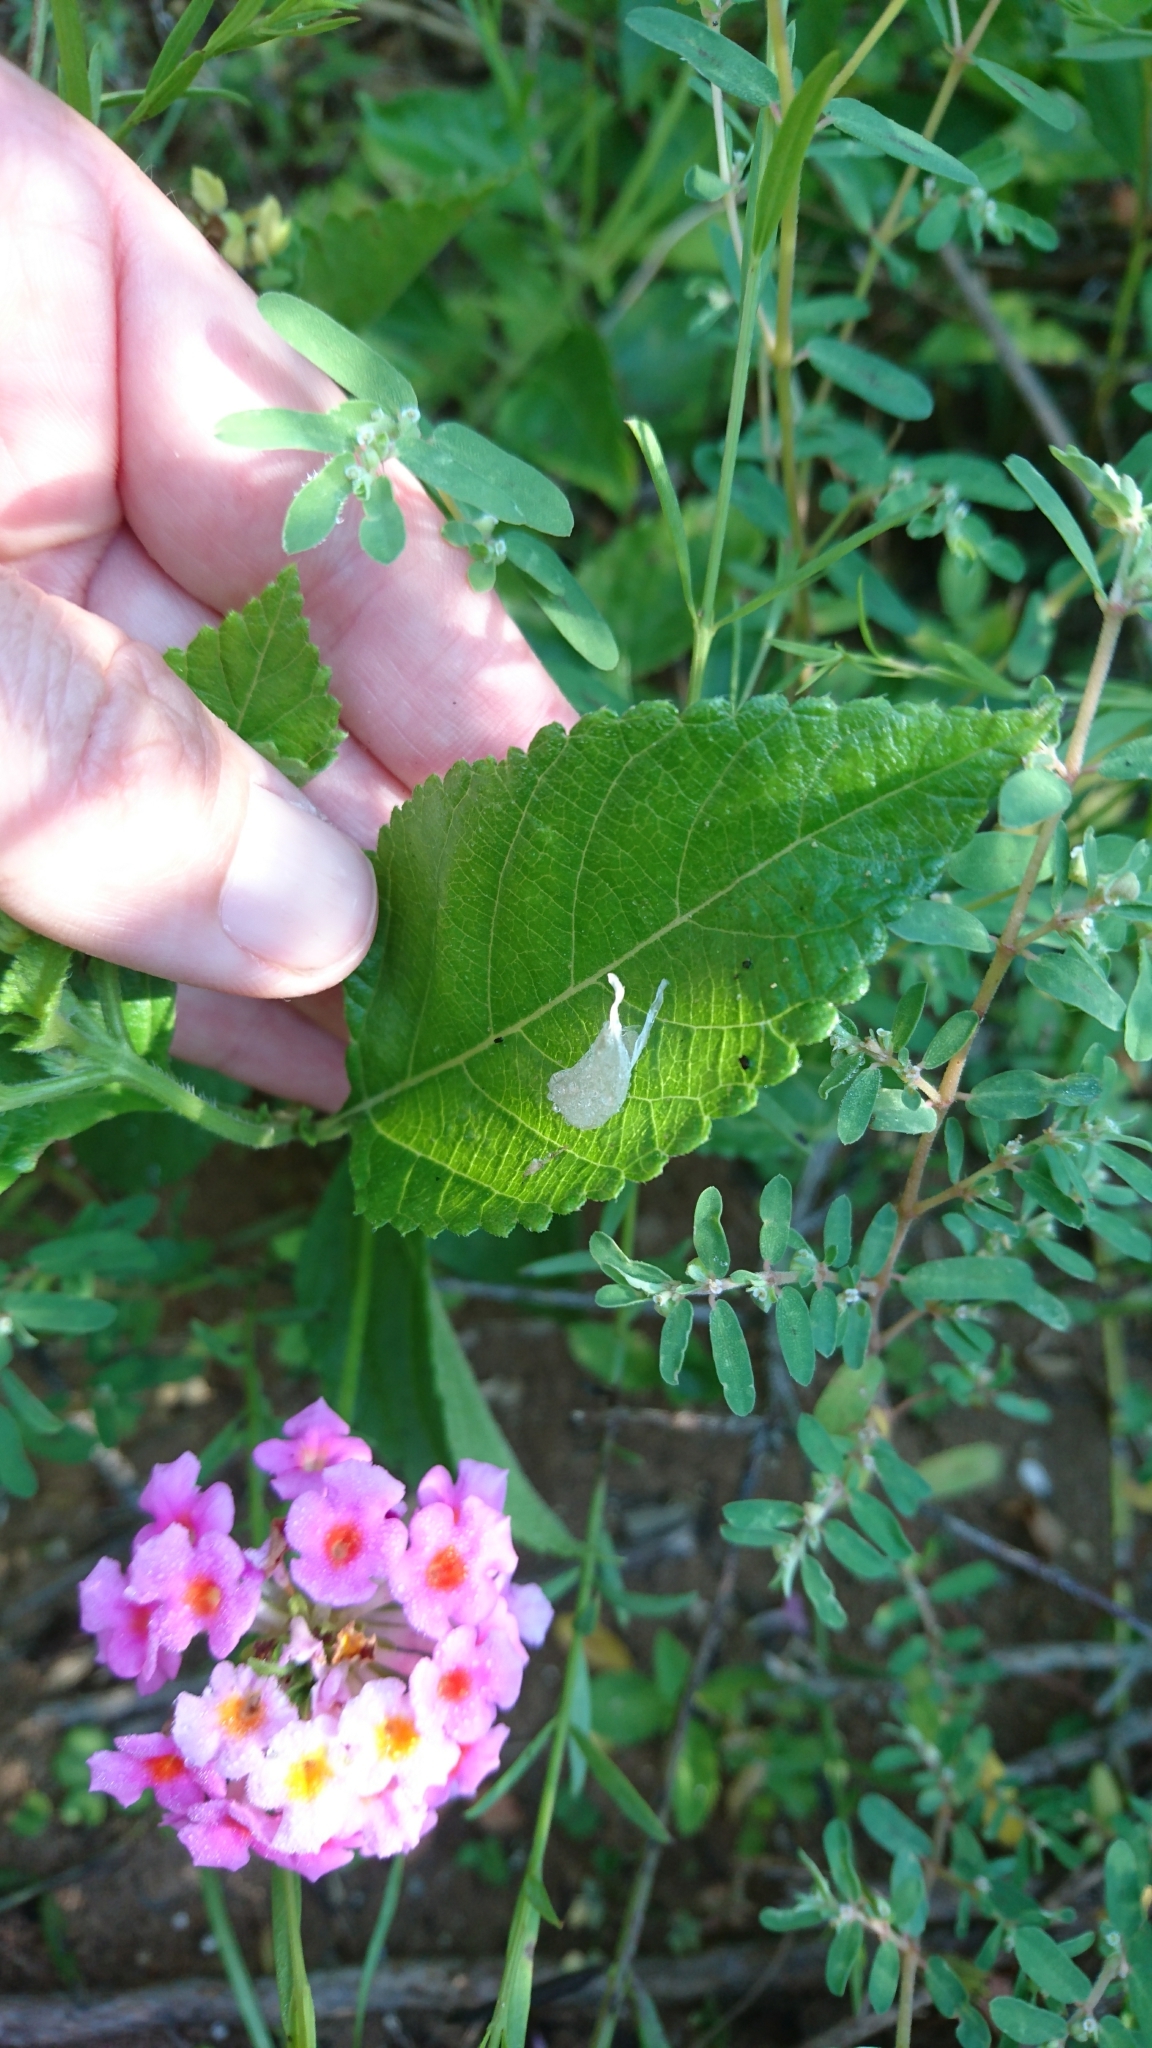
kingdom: Plantae
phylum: Tracheophyta
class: Magnoliopsida
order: Lamiales
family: Verbenaceae
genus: Lantana
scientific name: Lantana strigocamara
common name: Lantana
